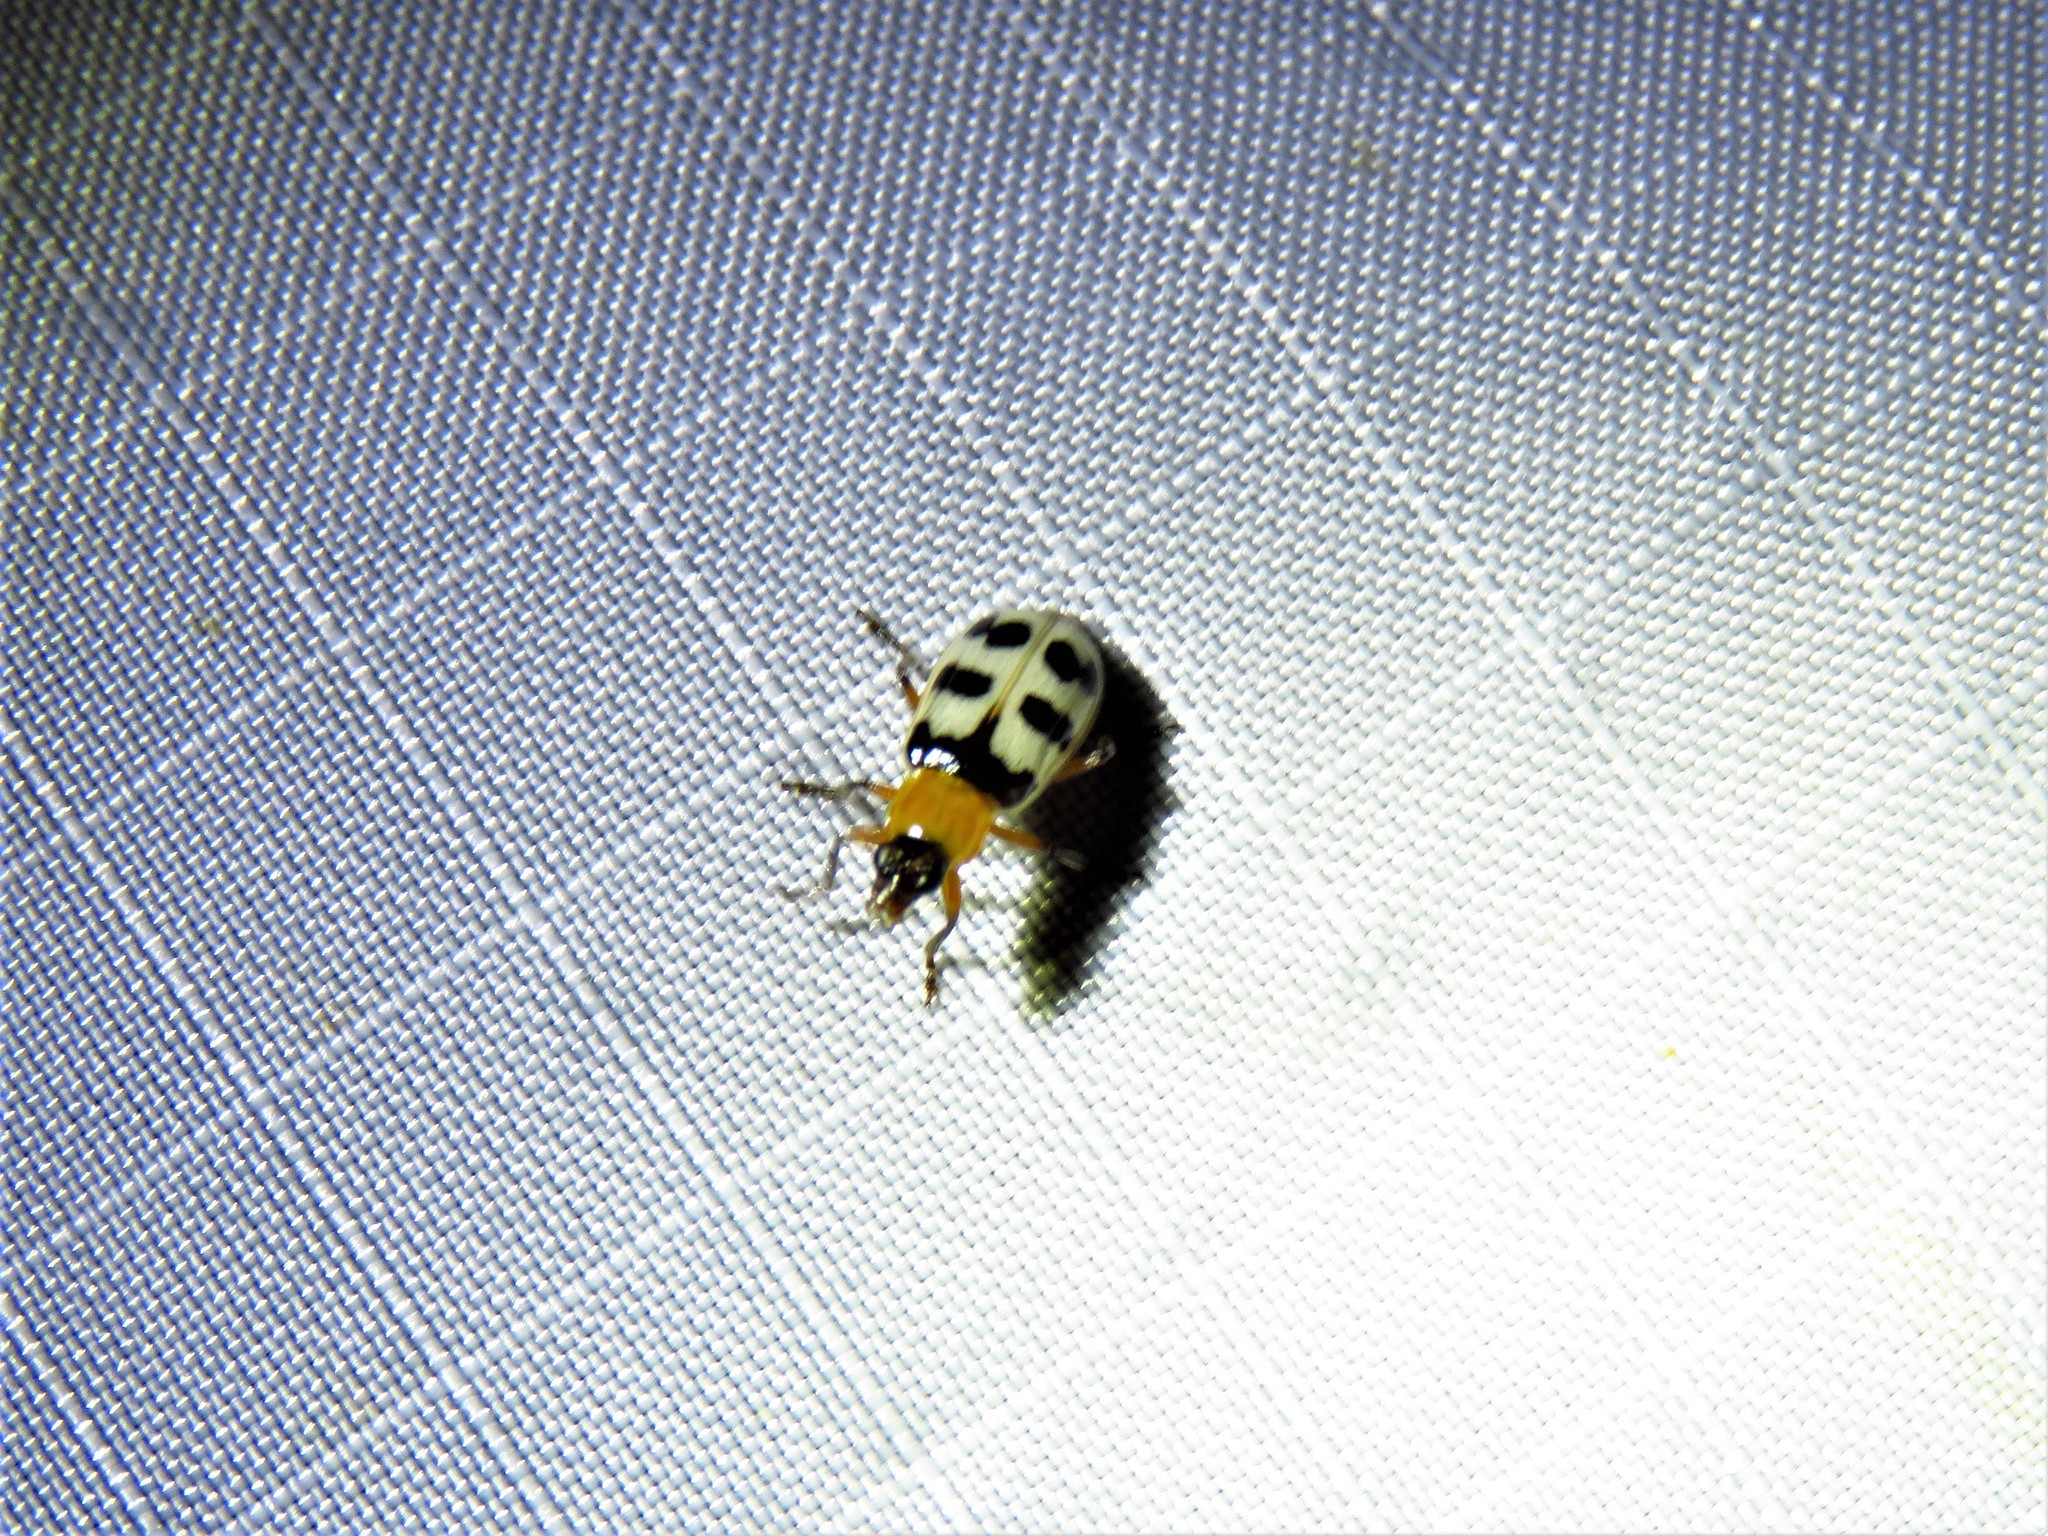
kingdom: Animalia
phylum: Arthropoda
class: Insecta
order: Coleoptera
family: Chrysomelidae
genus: Paranapiacaba
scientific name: Paranapiacaba tricincta
